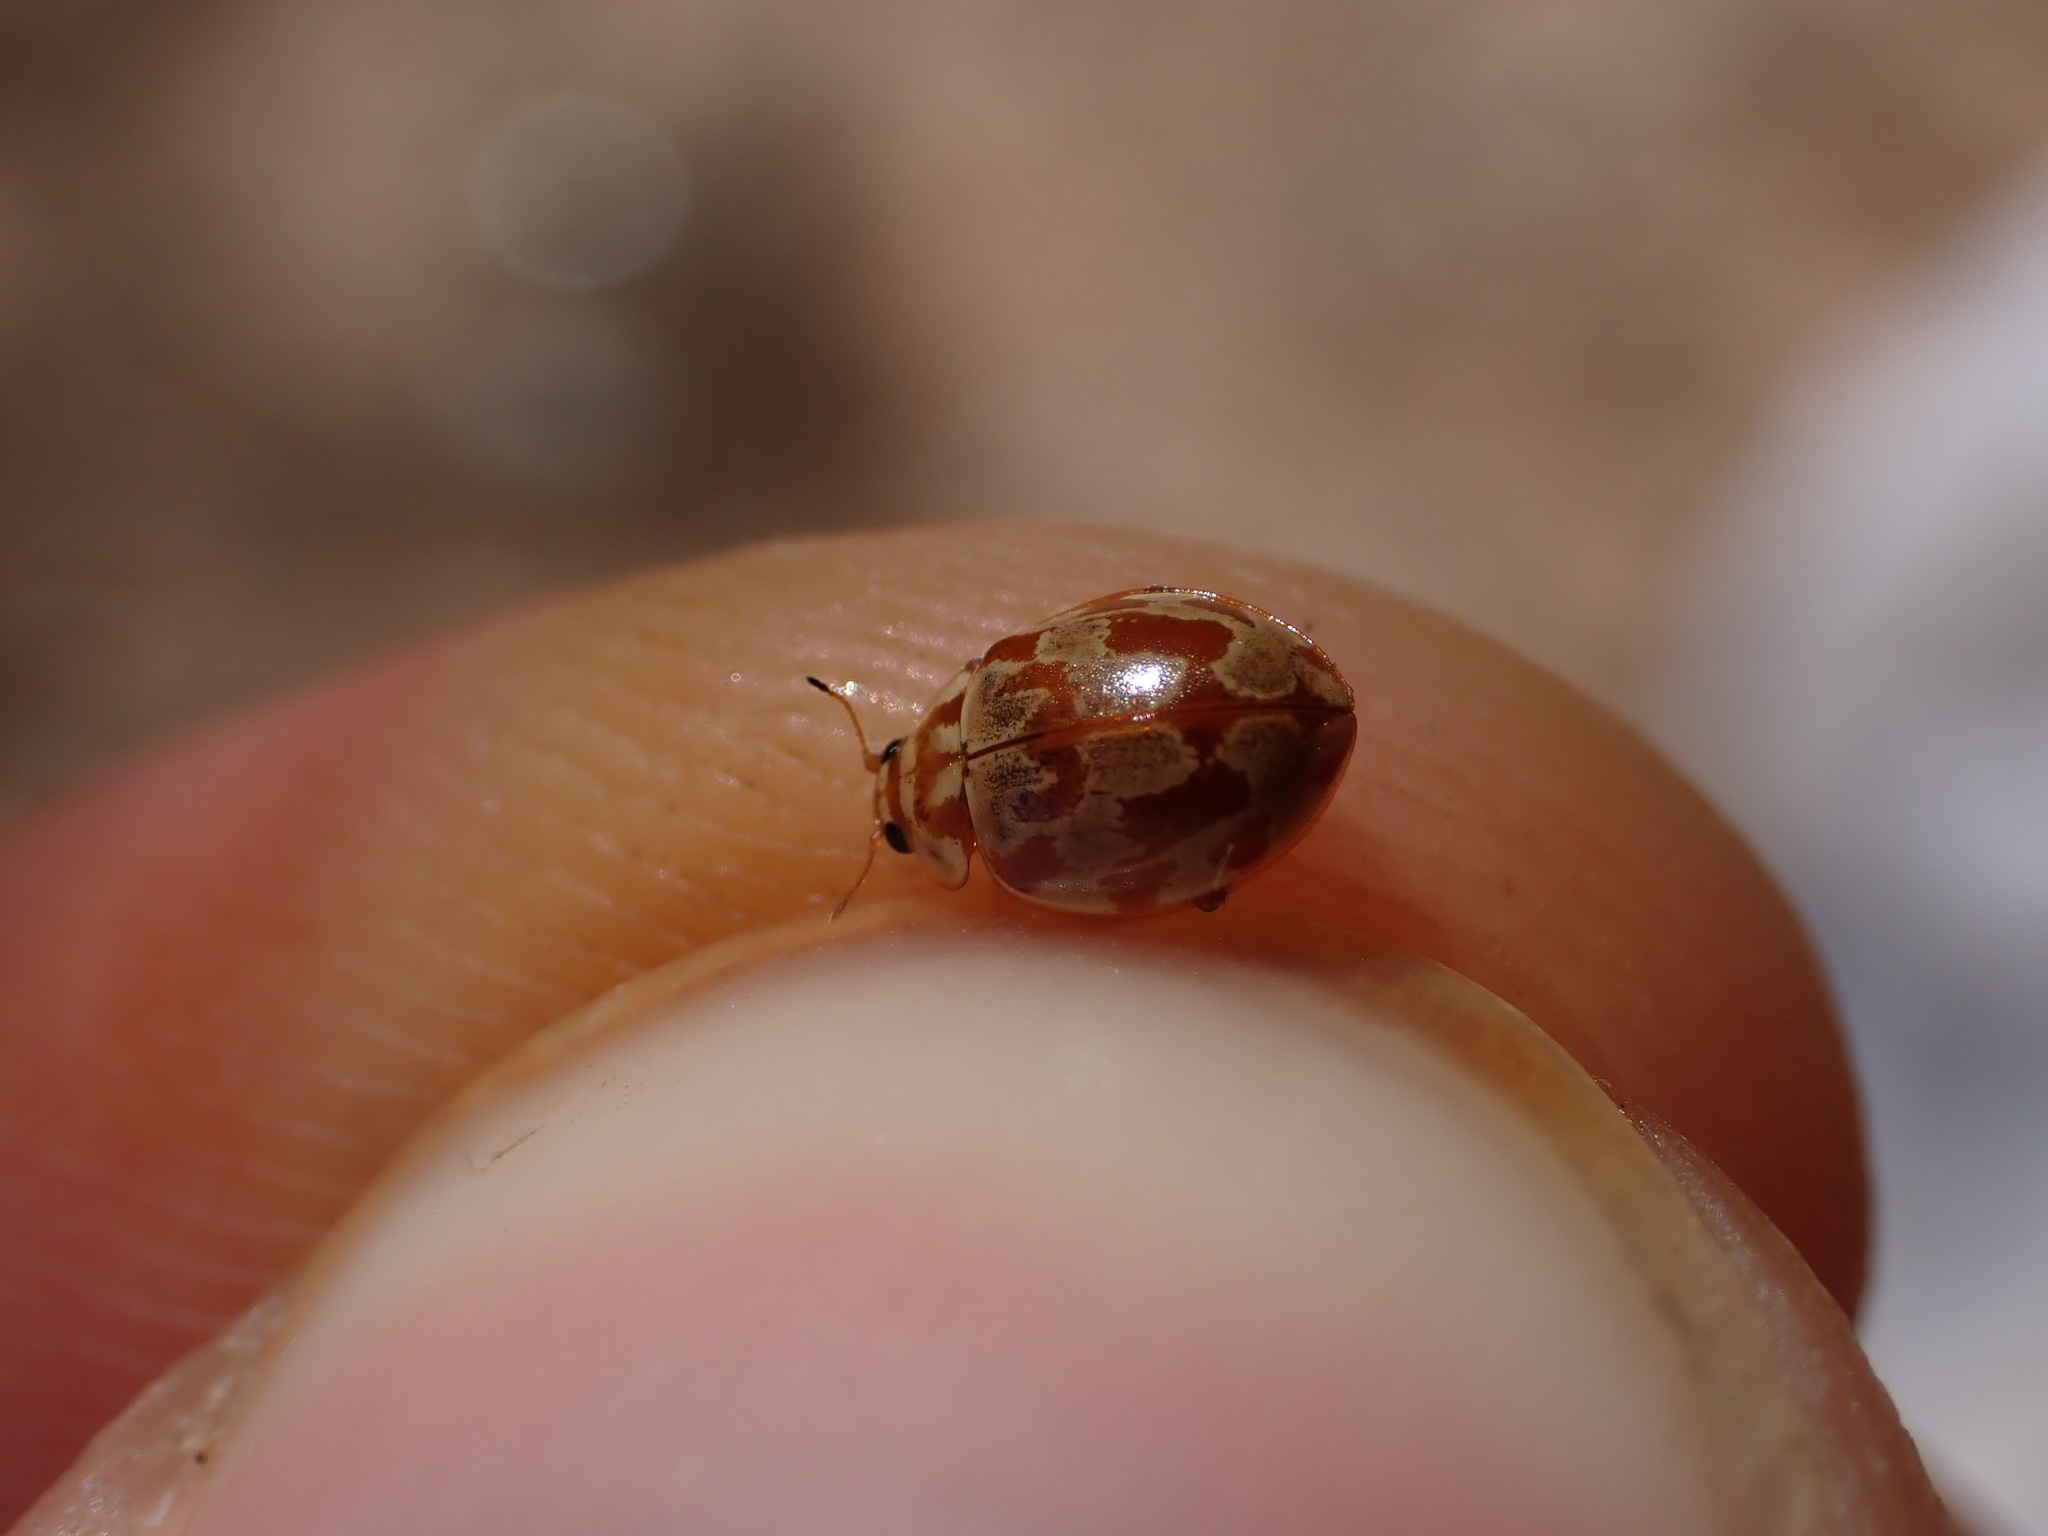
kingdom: Animalia
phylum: Arthropoda
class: Insecta
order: Coleoptera
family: Coccinellidae
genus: Myrrha
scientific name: Myrrha octodecimguttata
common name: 18-spot ladybird
